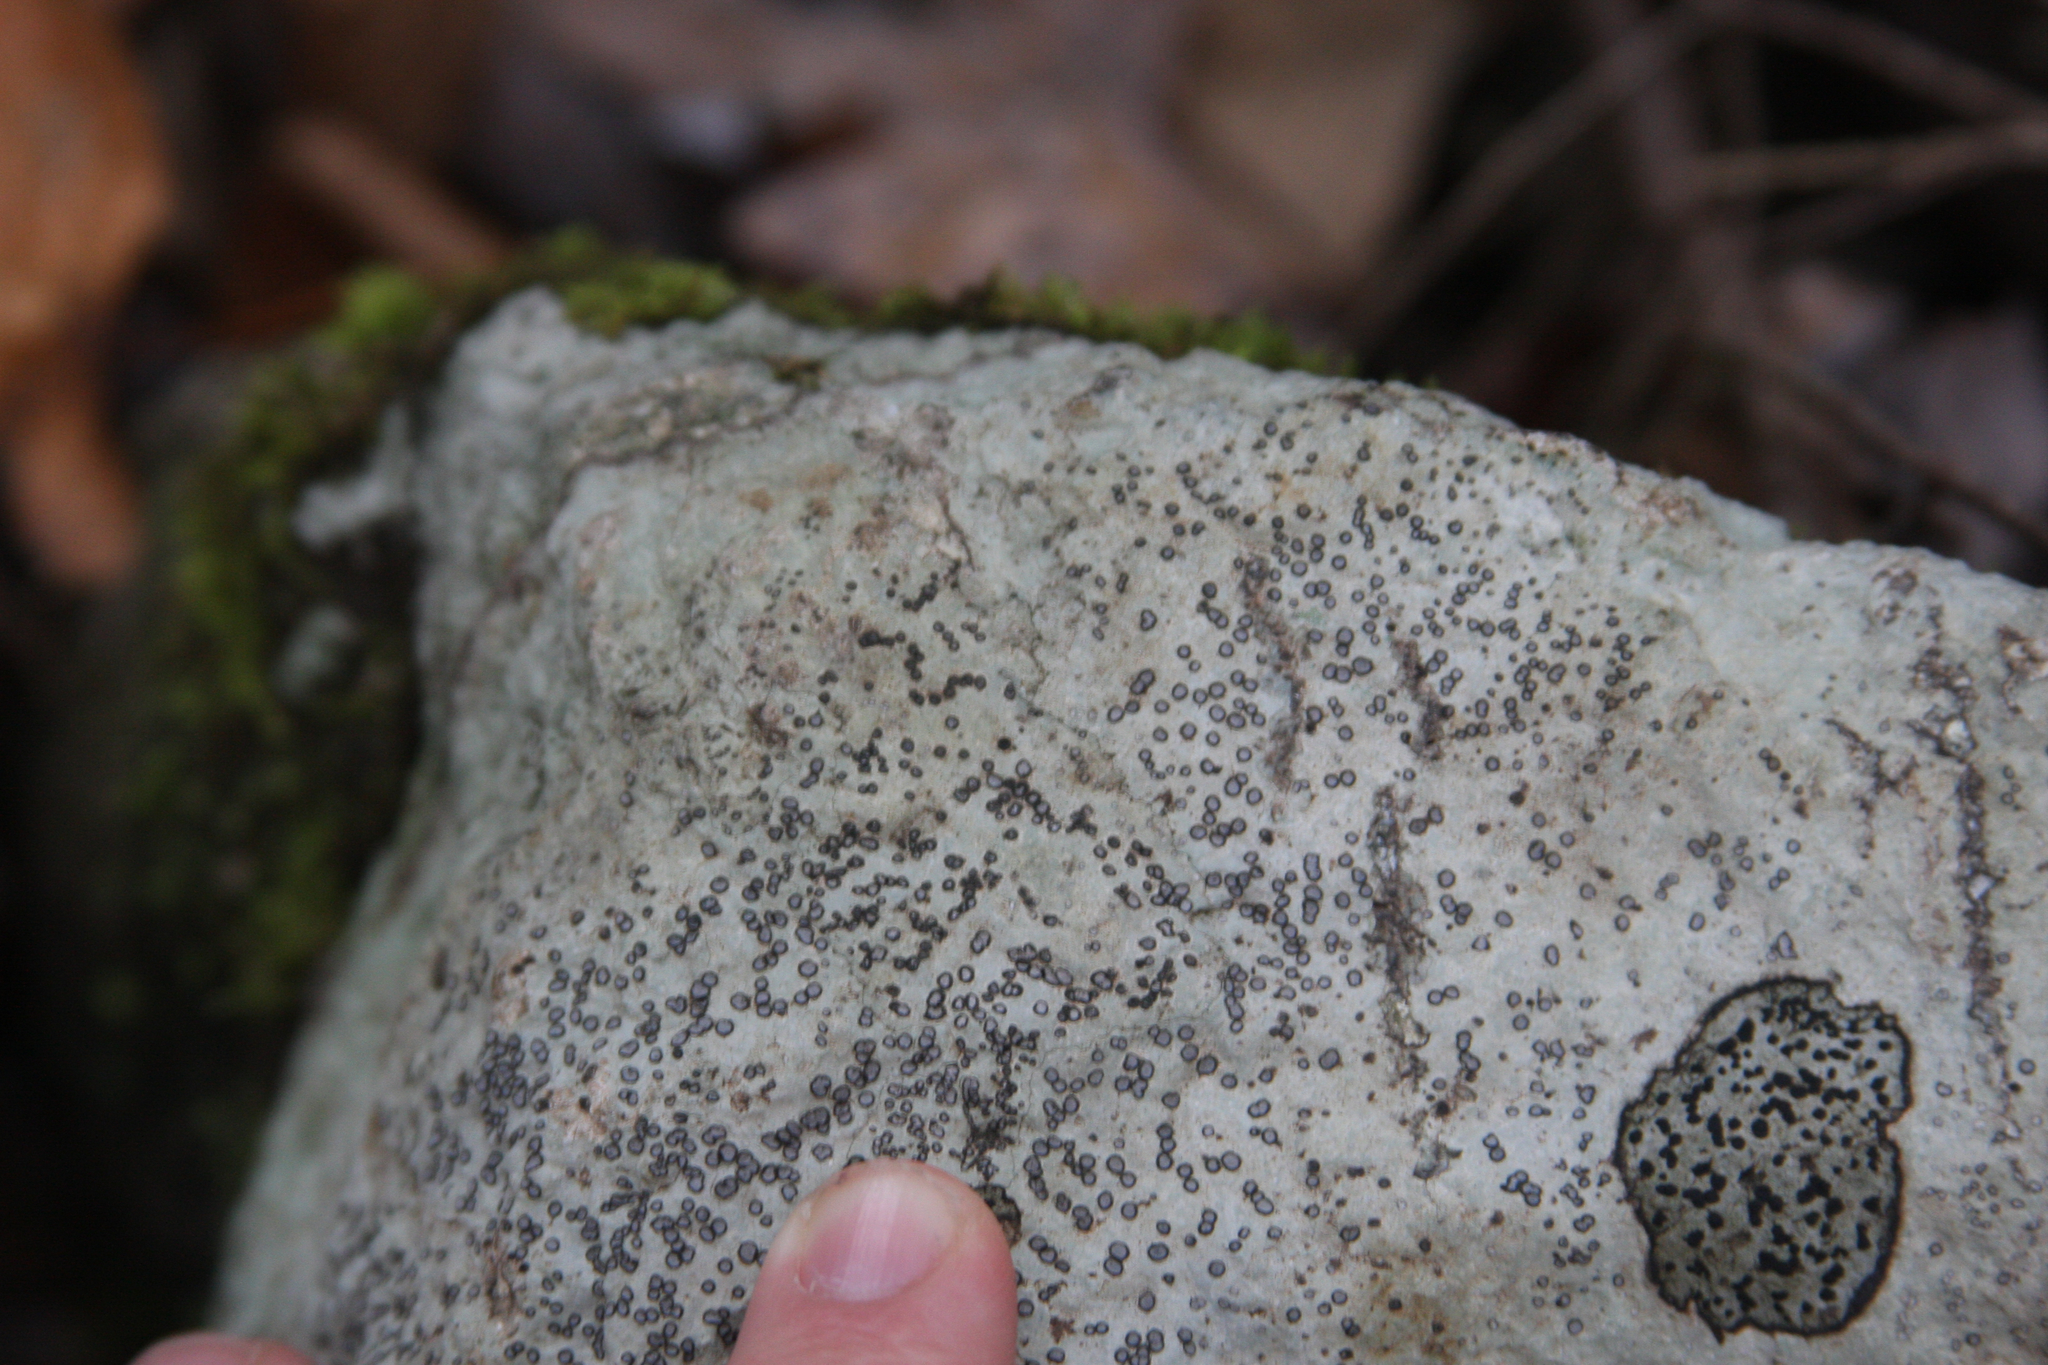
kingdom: Fungi
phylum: Ascomycota
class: Lecanoromycetes
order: Lecideales
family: Lecideaceae
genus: Porpidia
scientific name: Porpidia albocaerulescens
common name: Smokey-eyed boulder lichen
